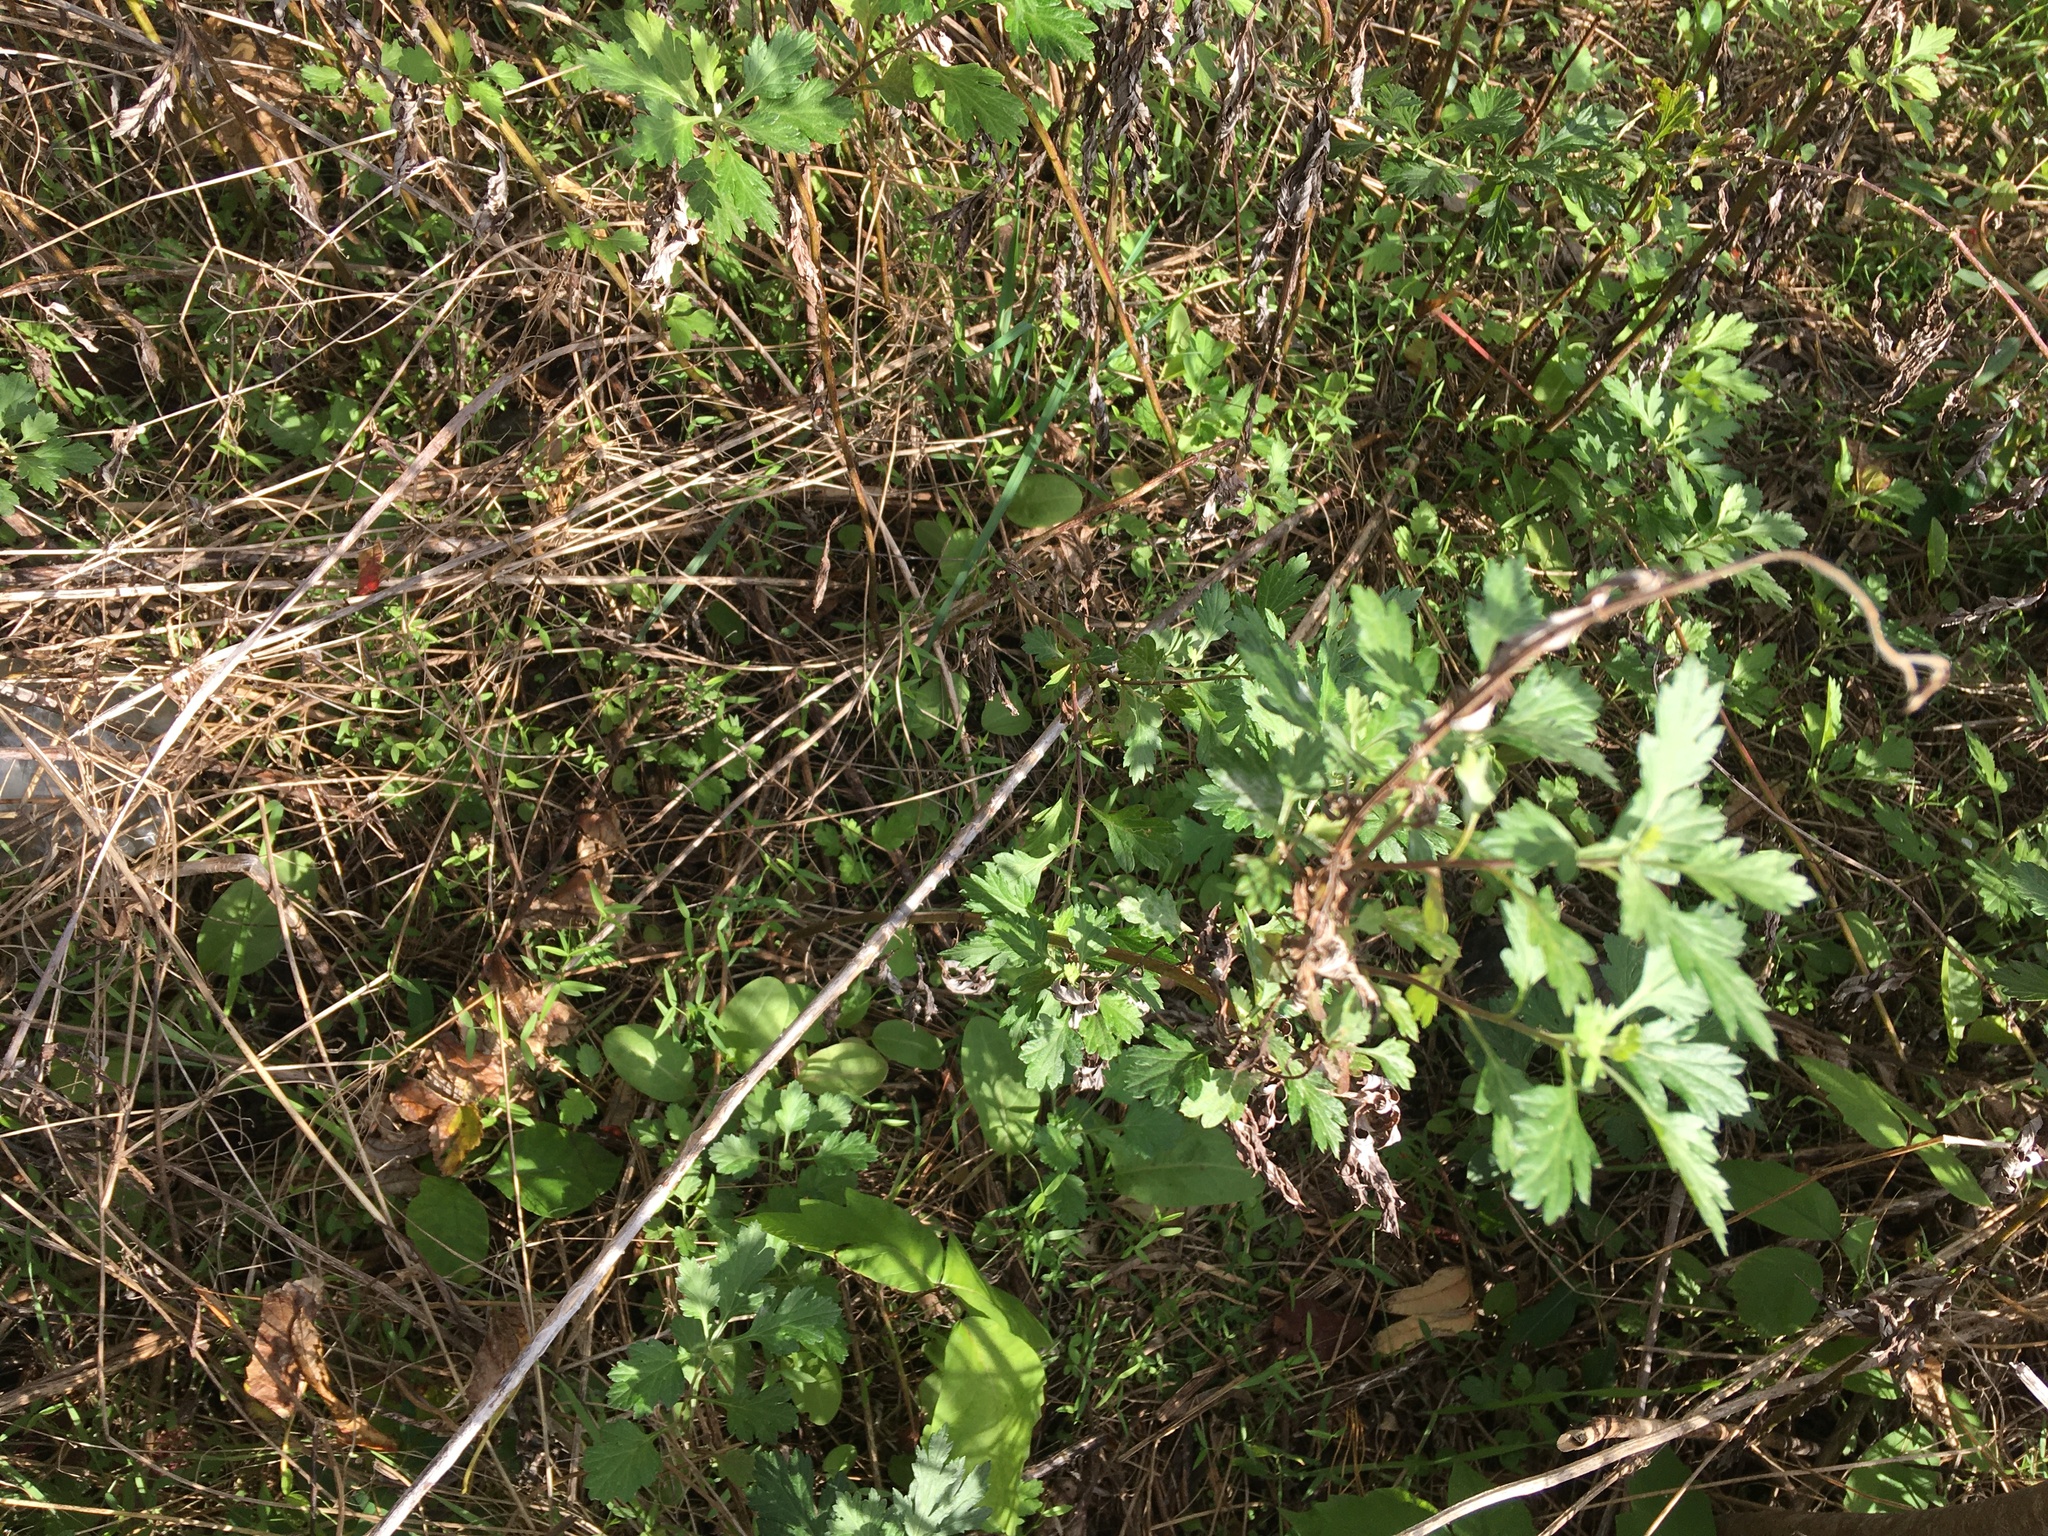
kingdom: Plantae
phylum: Tracheophyta
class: Magnoliopsida
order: Asterales
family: Asteraceae
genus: Artemisia
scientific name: Artemisia vulgaris
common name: Mugwort
